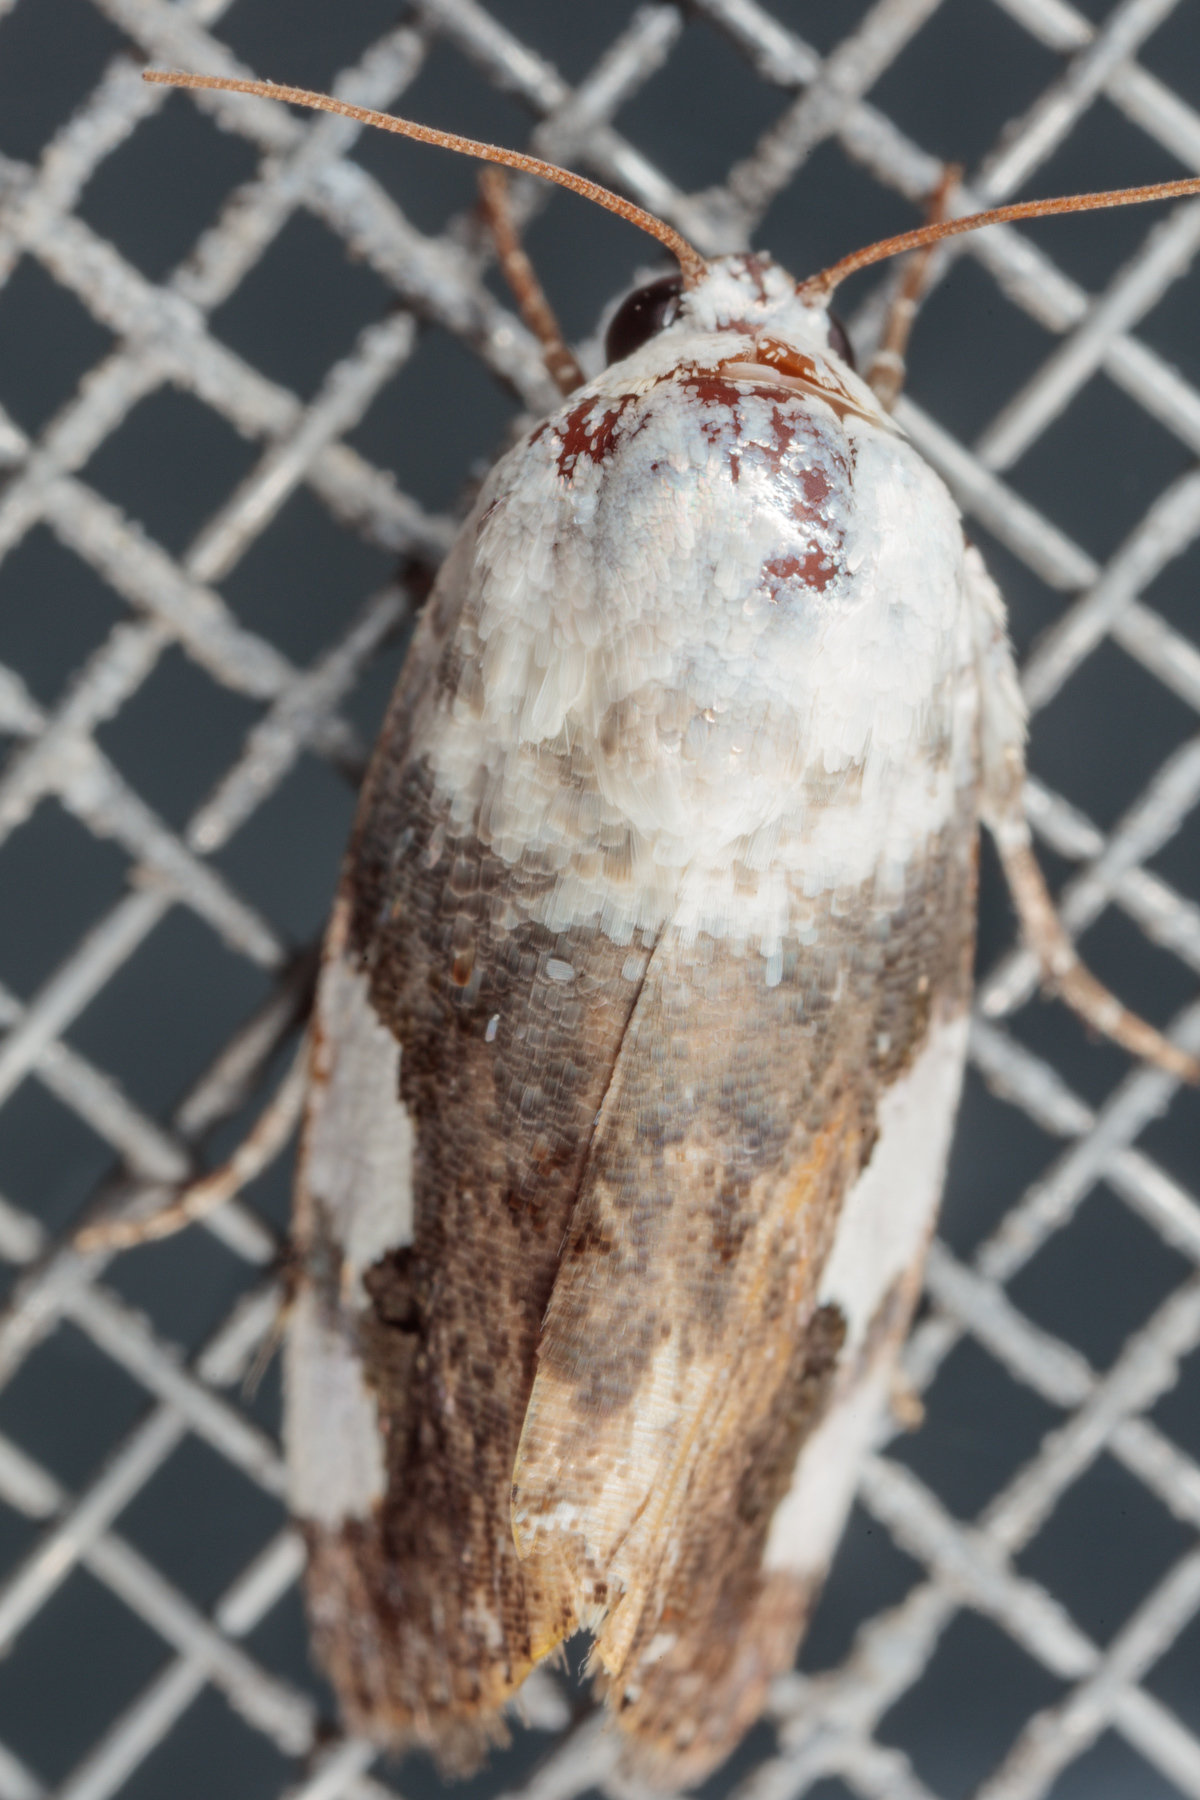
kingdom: Animalia
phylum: Arthropoda
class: Insecta
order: Lepidoptera
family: Noctuidae
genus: Acontia
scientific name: Acontia quadriplaga
